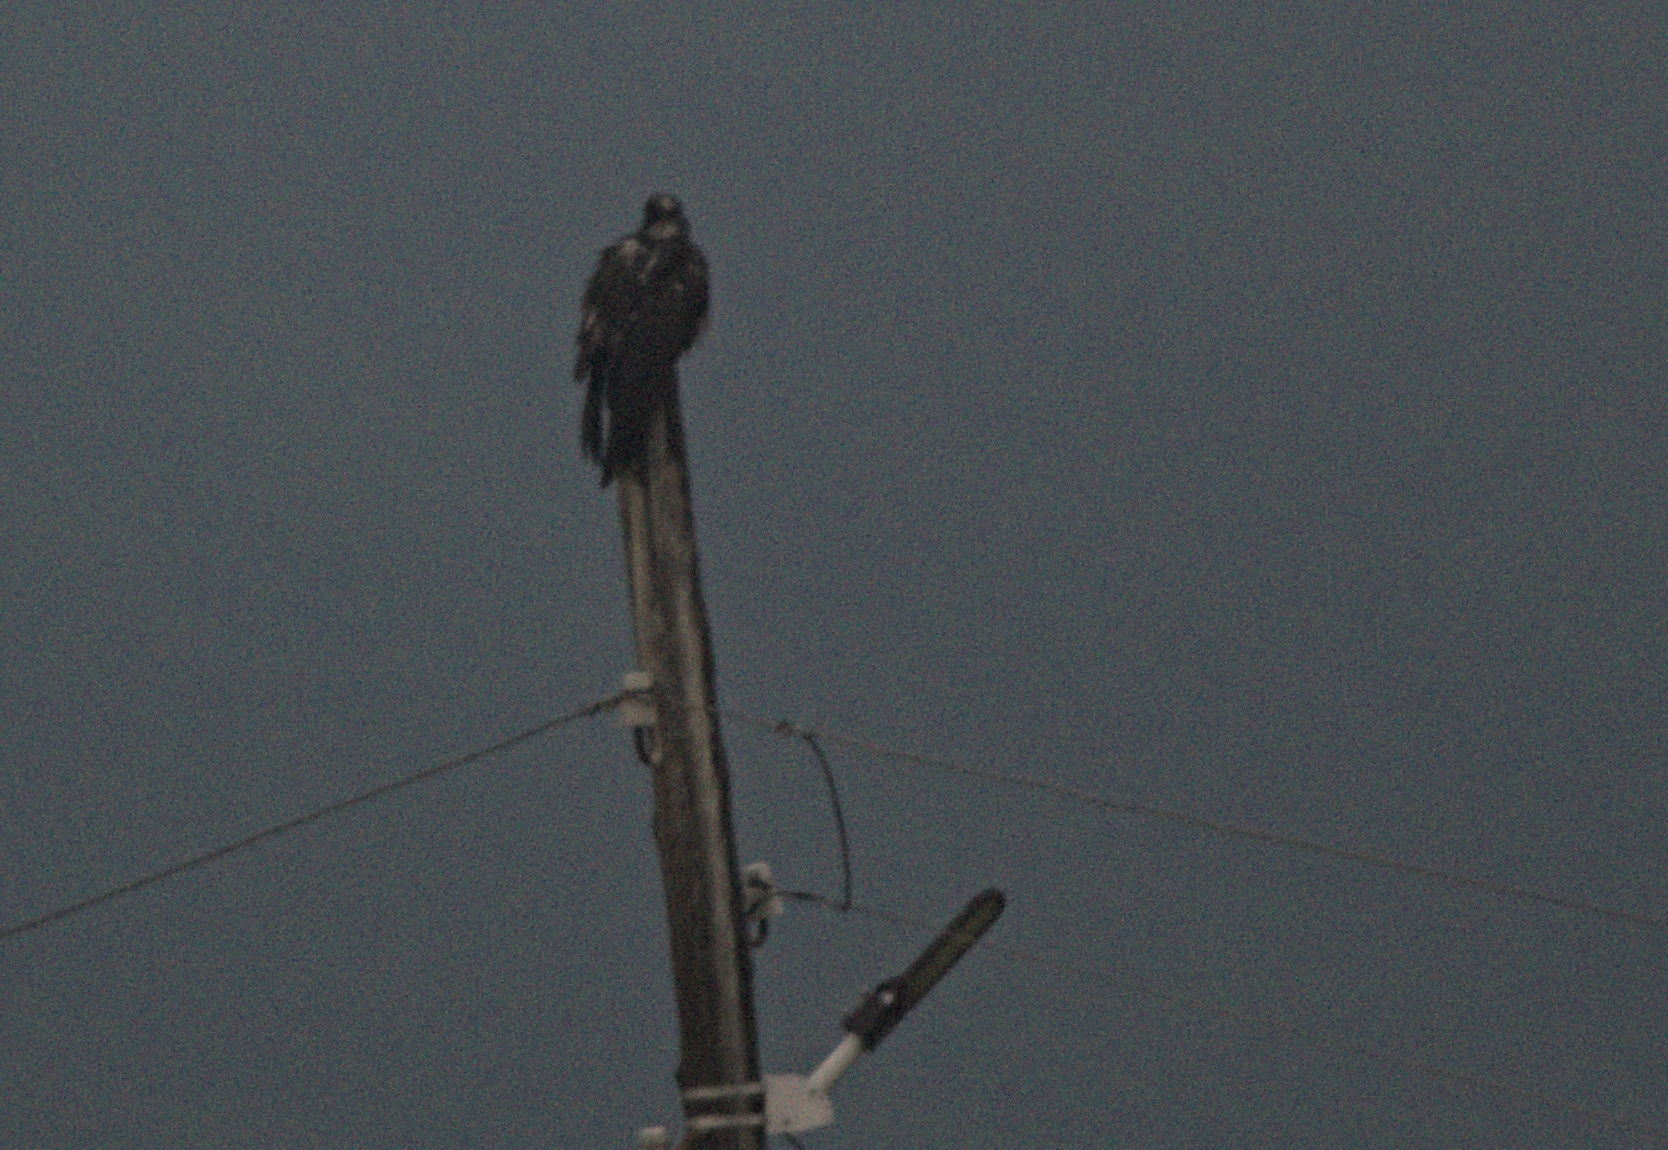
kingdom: Animalia
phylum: Chordata
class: Aves
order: Accipitriformes
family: Accipitridae
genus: Milvus
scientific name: Milvus migrans
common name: Black kite
